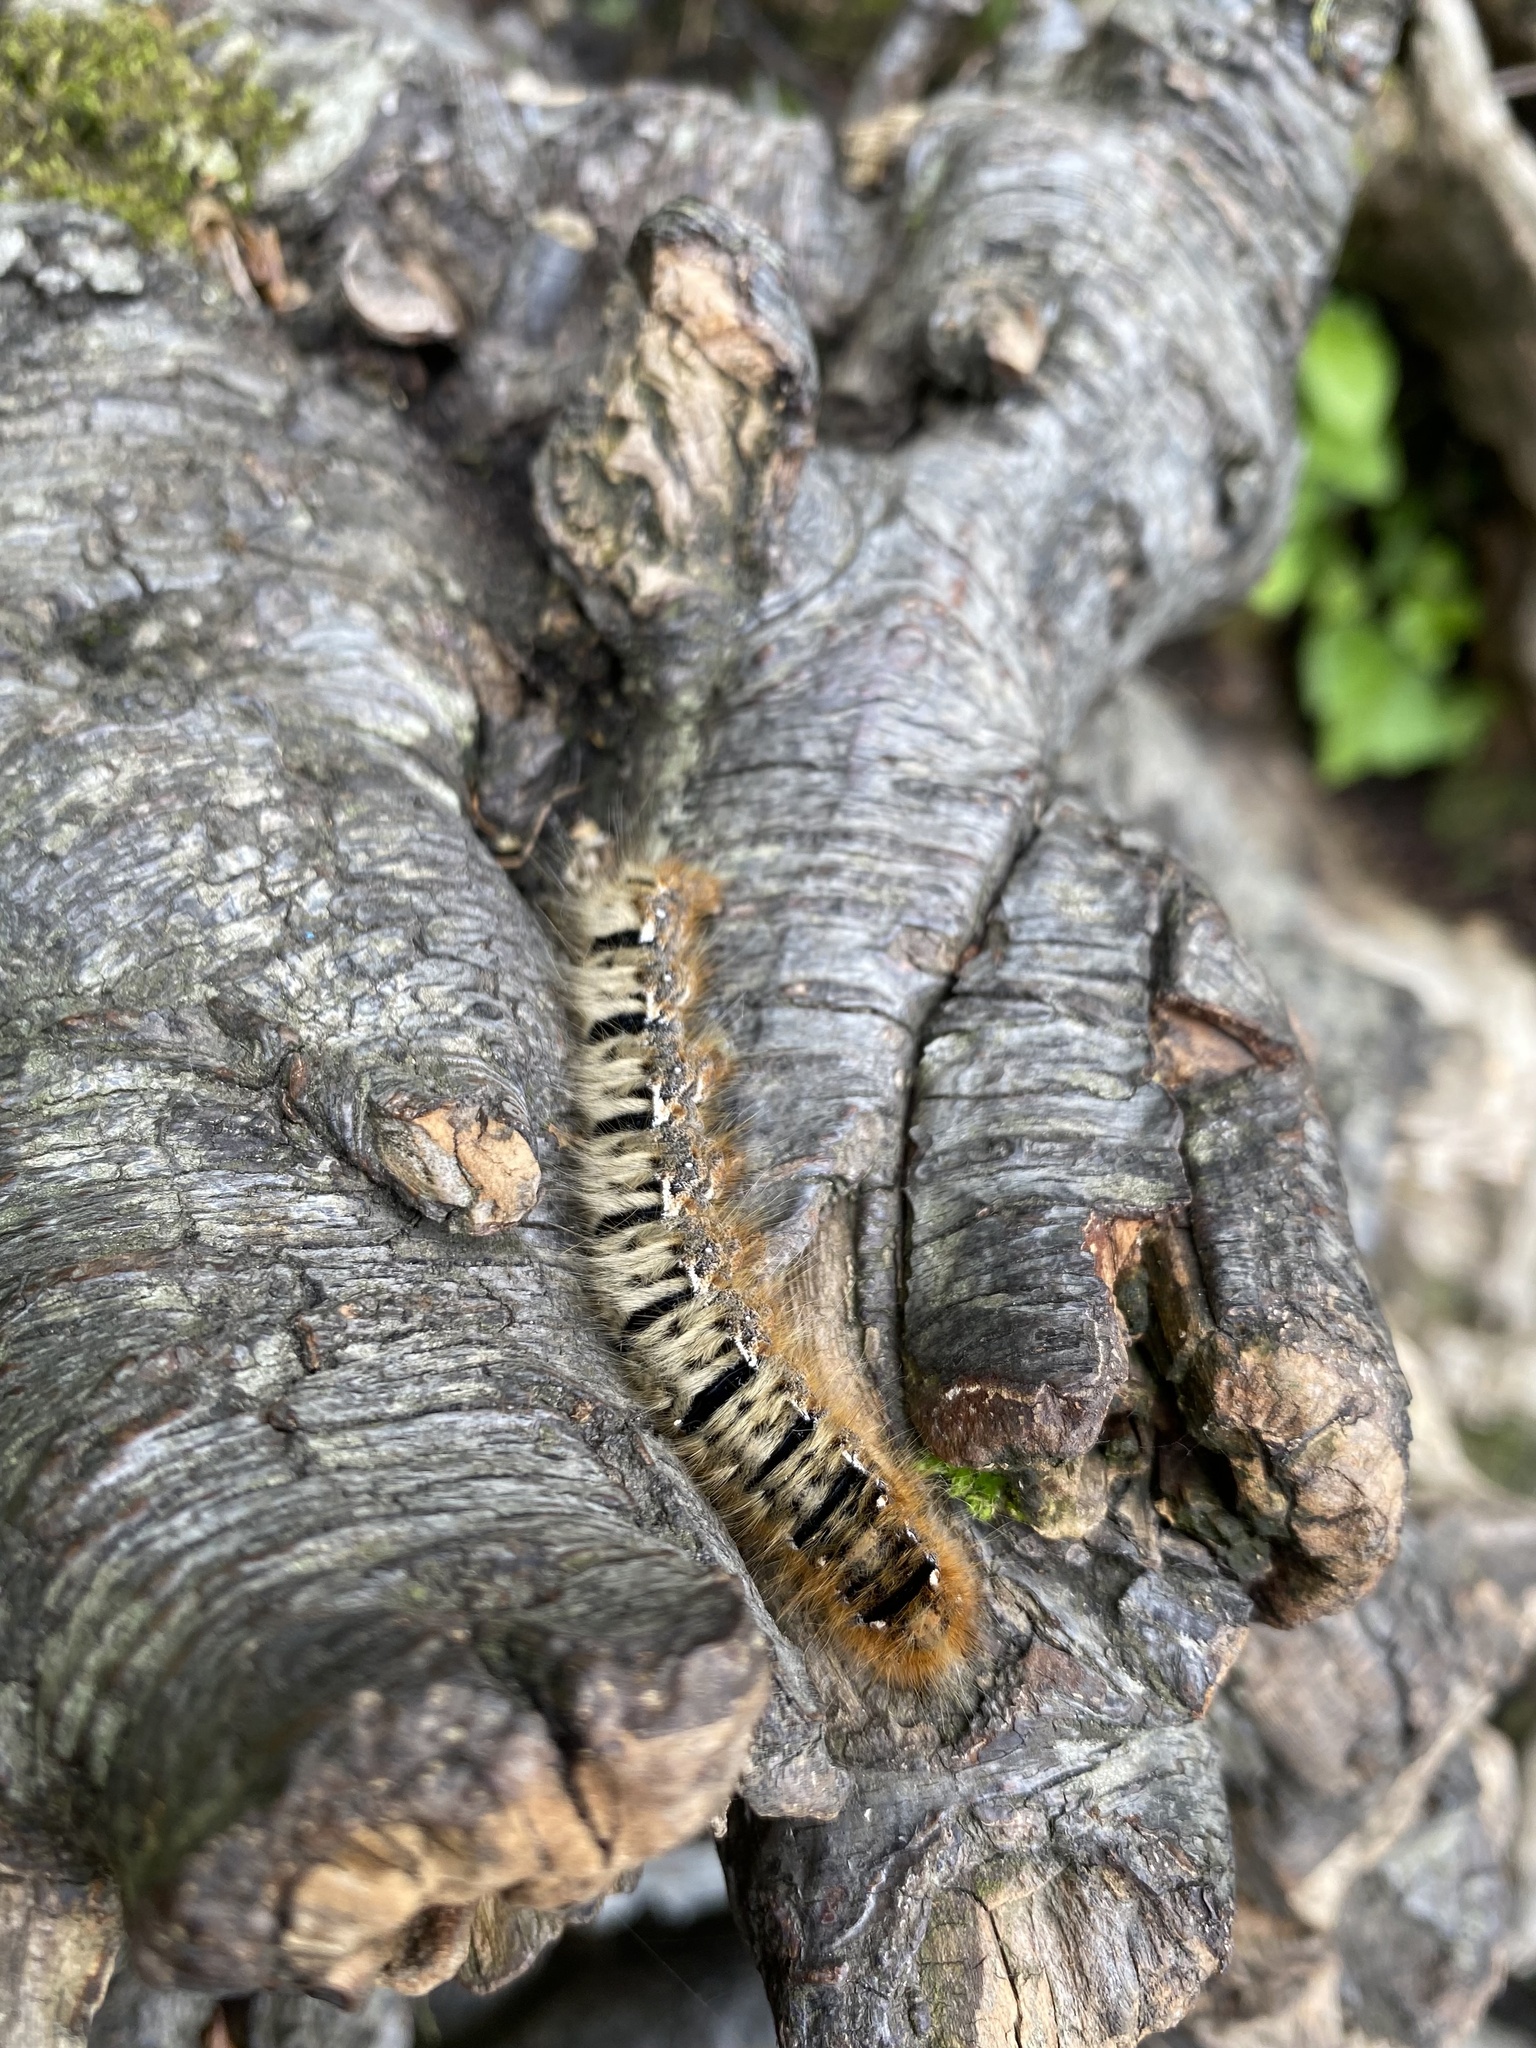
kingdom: Animalia
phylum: Arthropoda
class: Insecta
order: Lepidoptera
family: Lasiocampidae
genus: Lasiocampa
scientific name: Lasiocampa quercus
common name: Oak eggar
